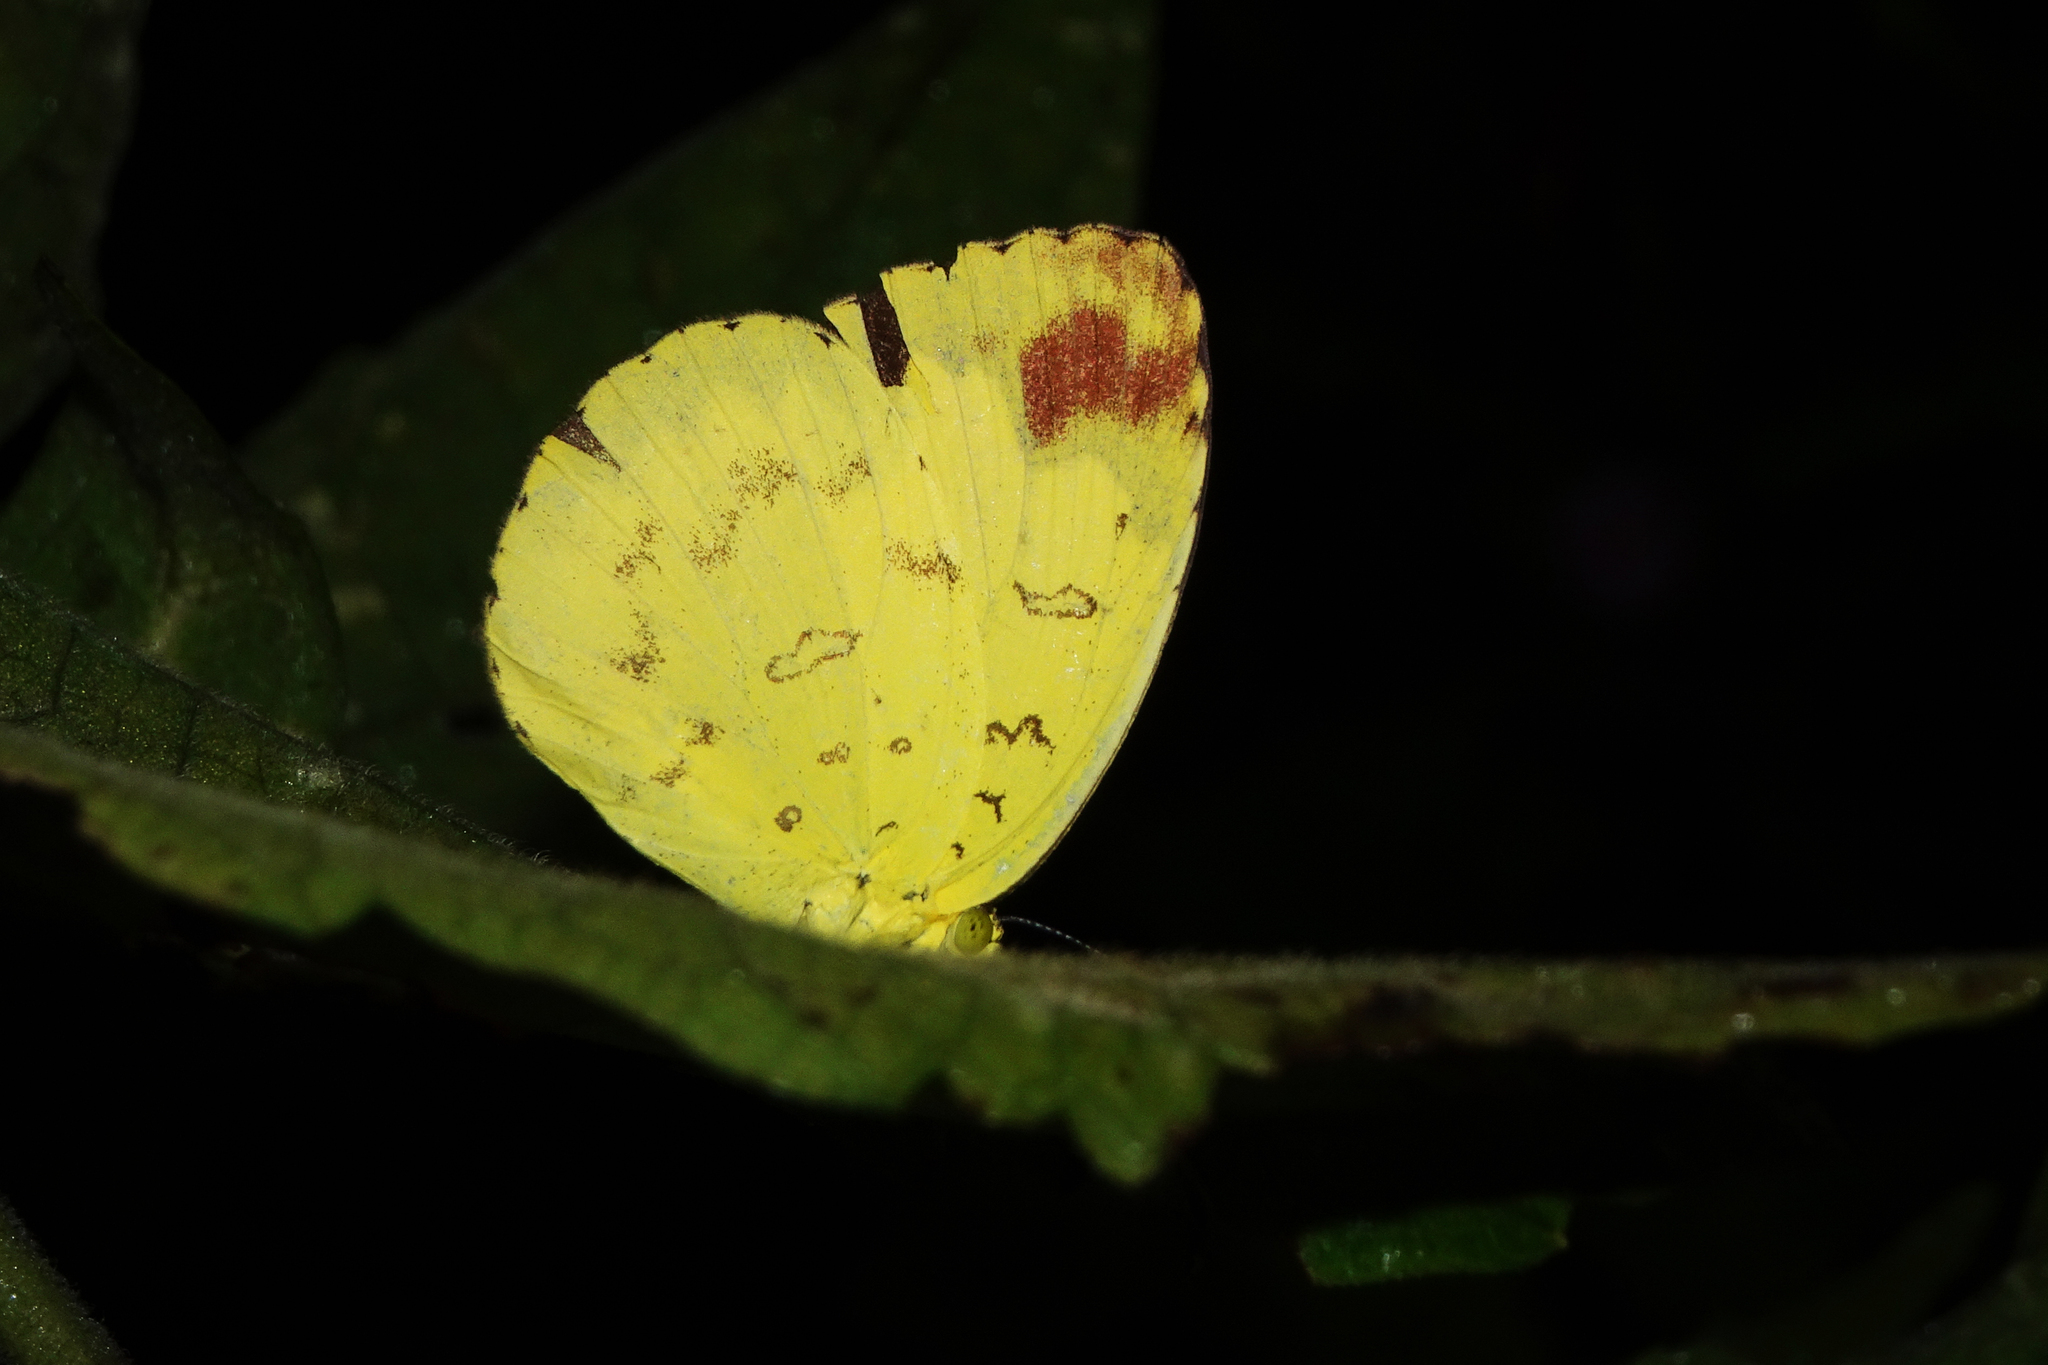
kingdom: Animalia
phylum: Arthropoda
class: Insecta
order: Lepidoptera
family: Pieridae
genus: Eurema
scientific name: Eurema blanda
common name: Three-spot grass yellow
